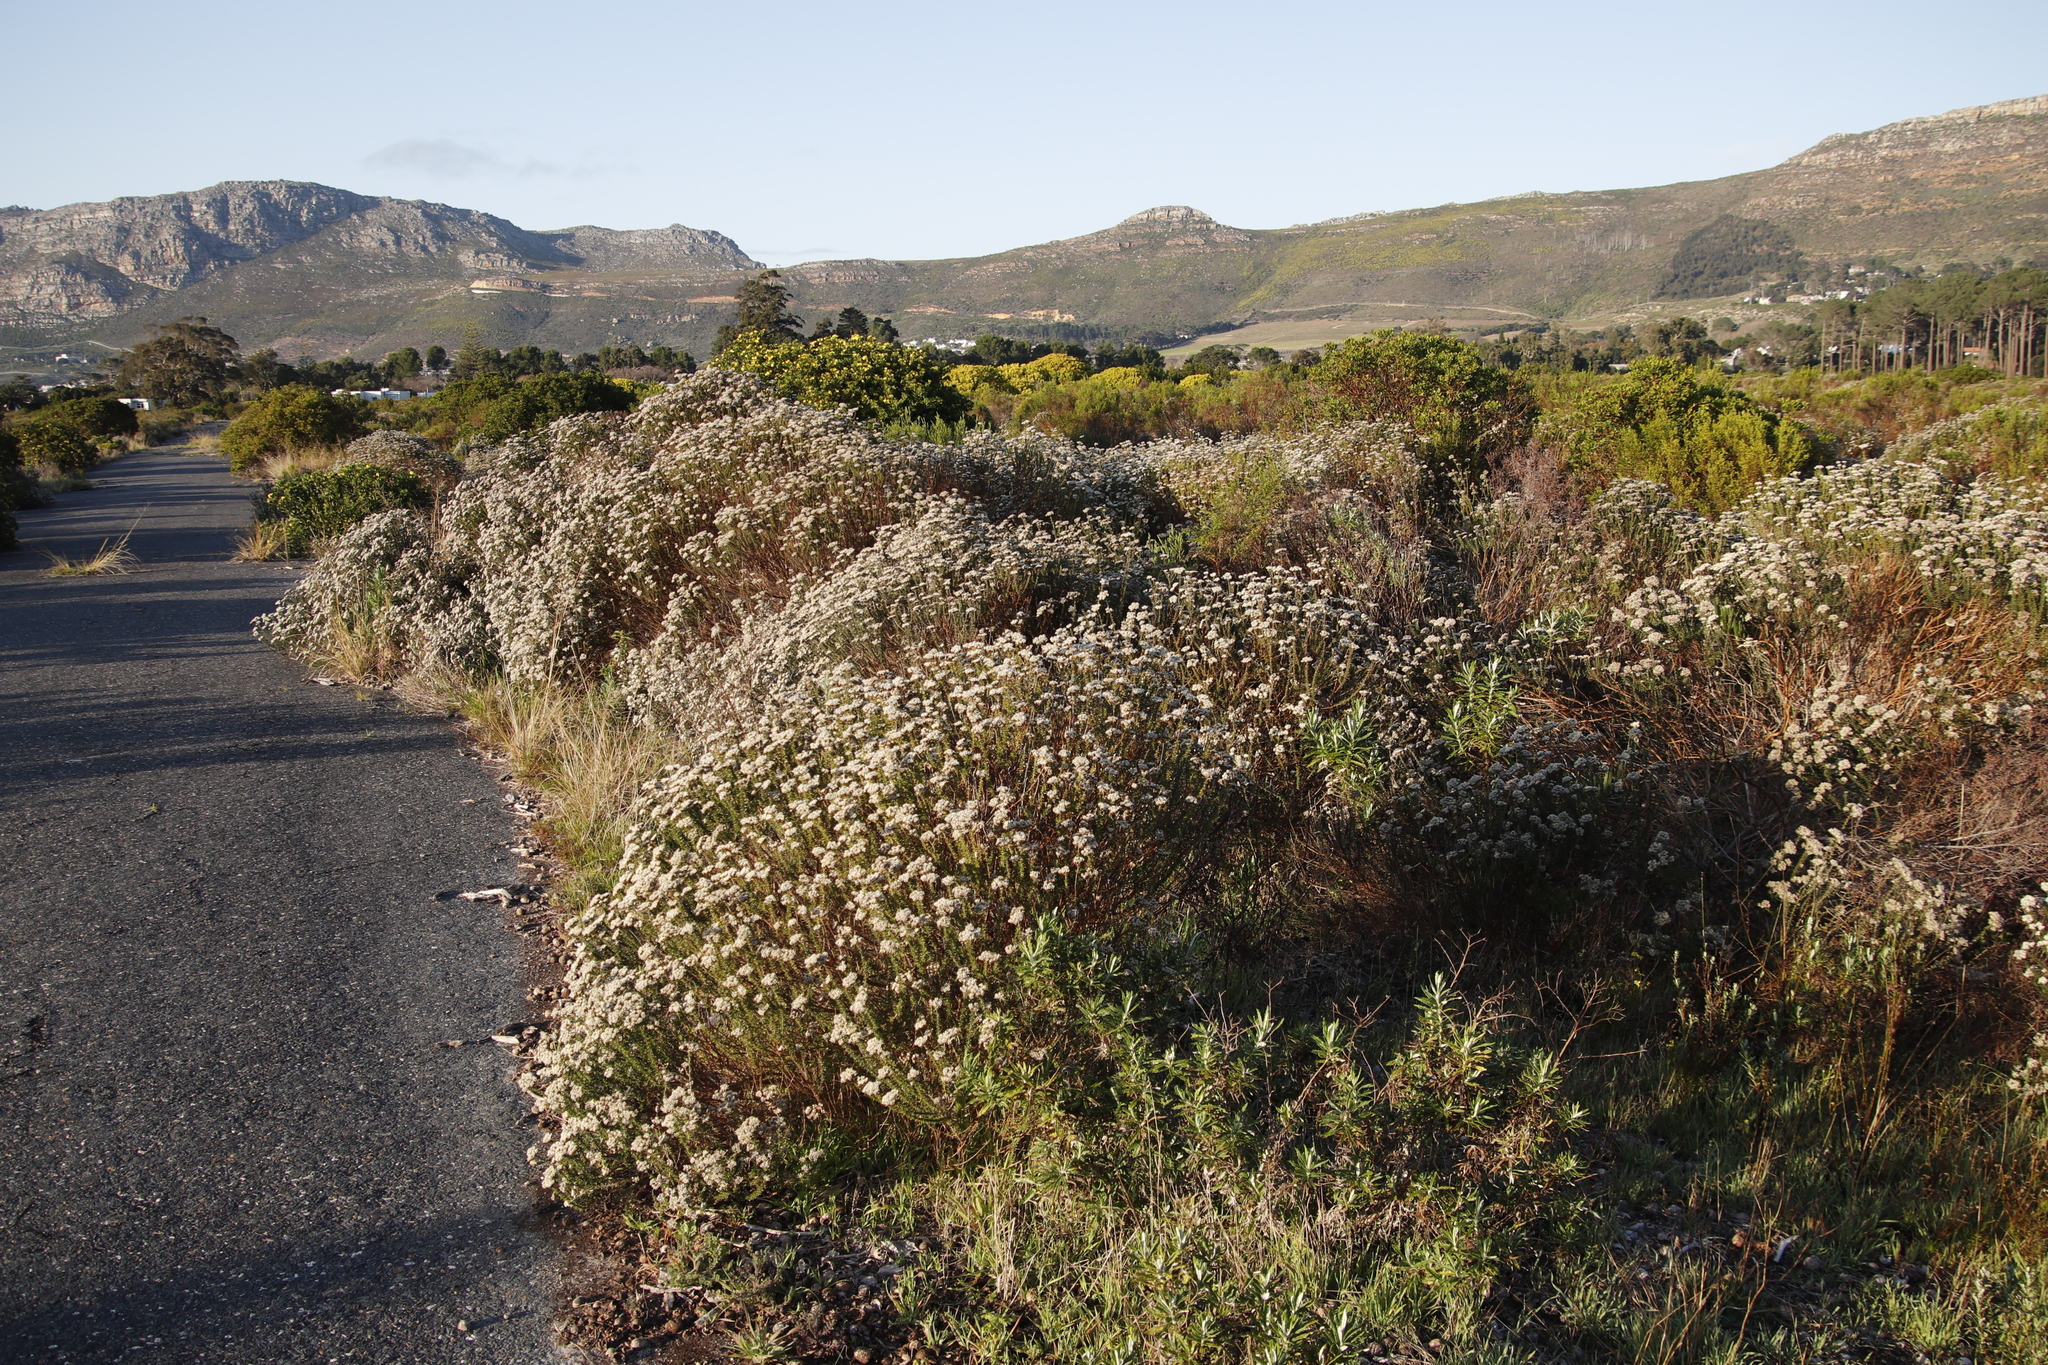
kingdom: Plantae
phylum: Tracheophyta
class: Magnoliopsida
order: Asterales
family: Asteraceae
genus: Metalasia
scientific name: Metalasia densa
